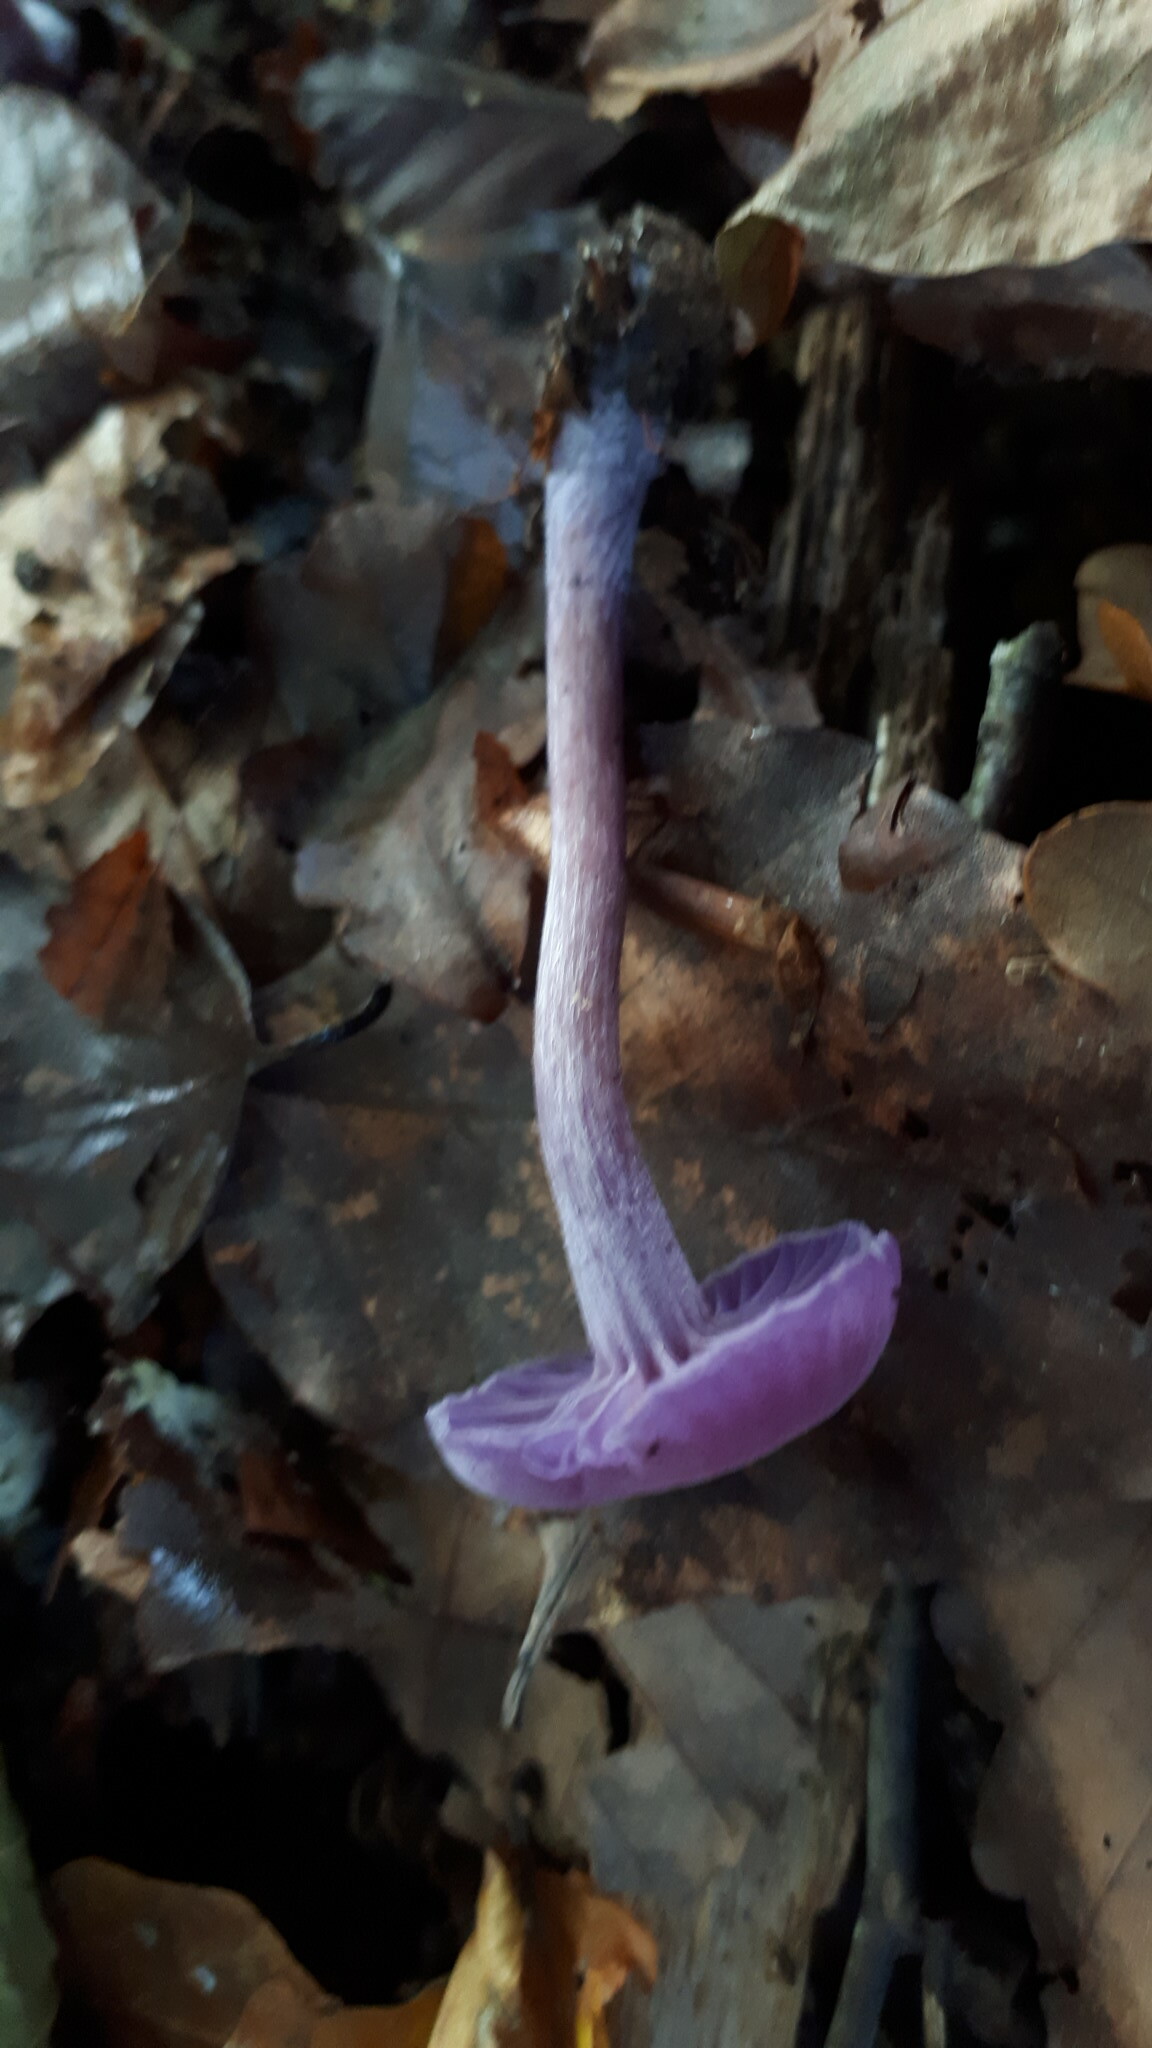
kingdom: Fungi
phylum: Basidiomycota
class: Agaricomycetes
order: Agaricales
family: Hydnangiaceae
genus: Laccaria
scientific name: Laccaria amethystina
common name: Amethyst deceiver
